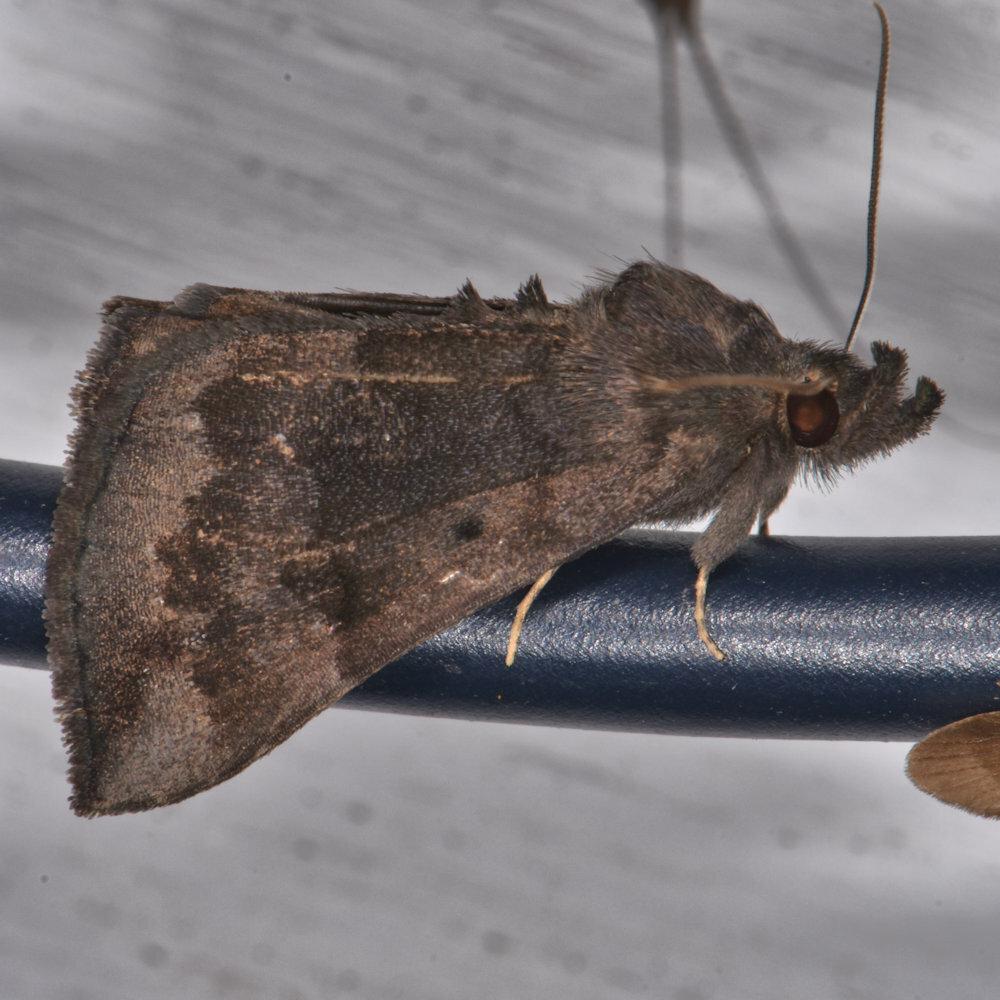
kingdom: Animalia
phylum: Arthropoda
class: Insecta
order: Lepidoptera
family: Erebidae
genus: Hypena
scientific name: Hypena madefactalis
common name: Gray-edged snout
